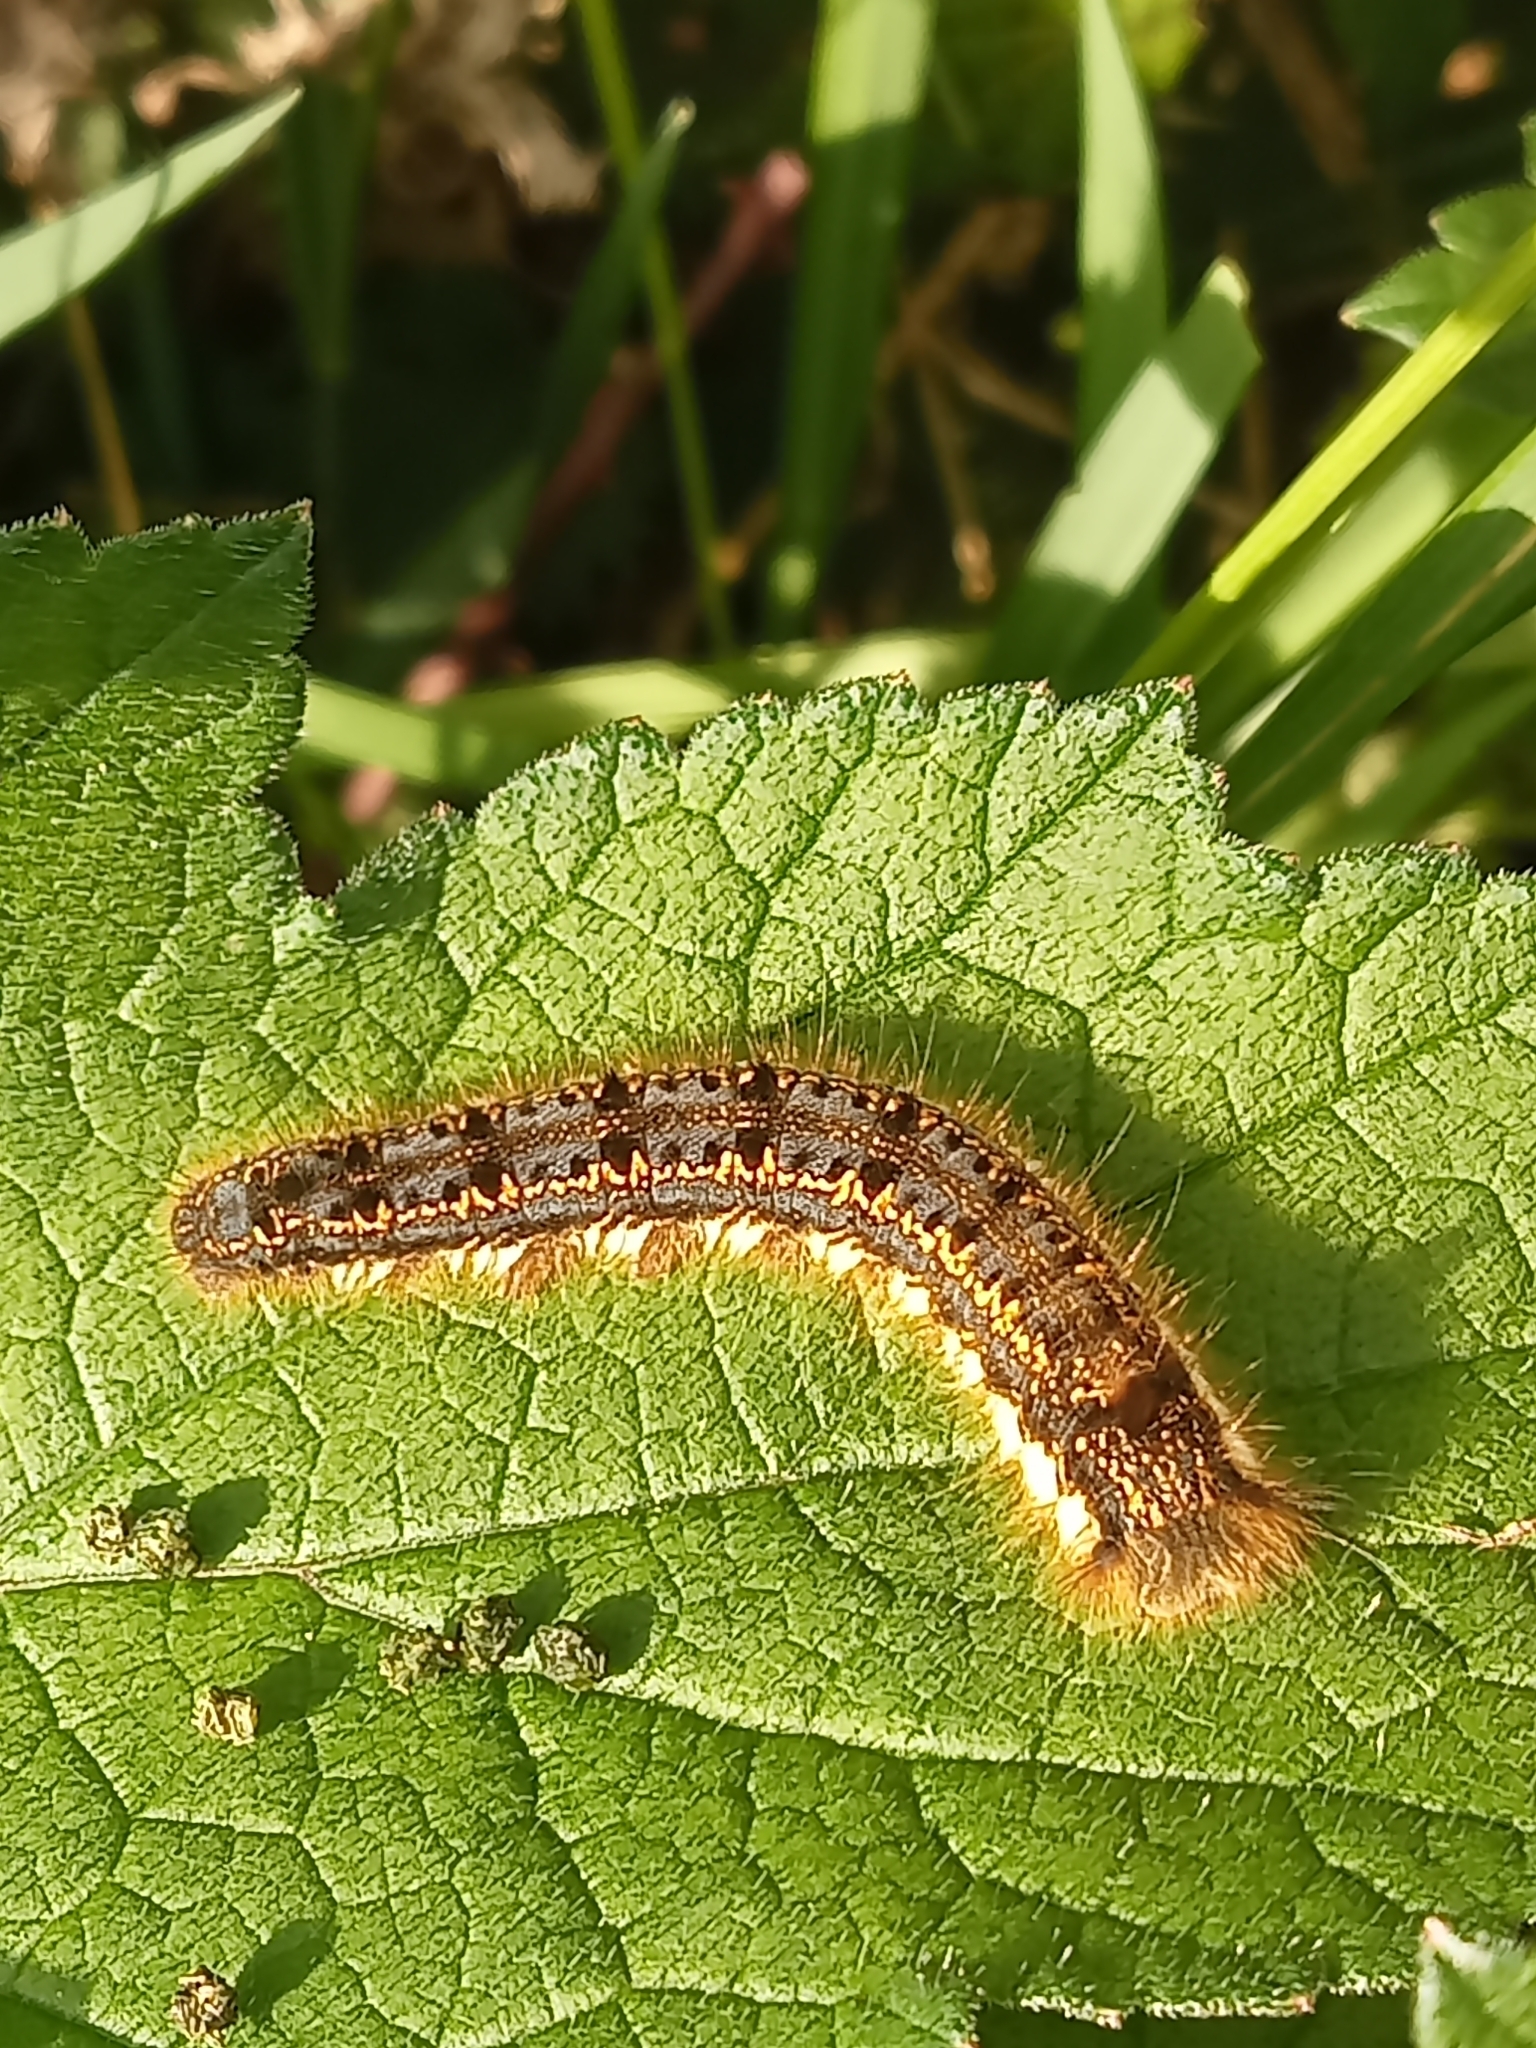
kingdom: Animalia
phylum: Arthropoda
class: Insecta
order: Lepidoptera
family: Lasiocampidae
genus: Euthrix
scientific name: Euthrix potatoria
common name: Drinker
